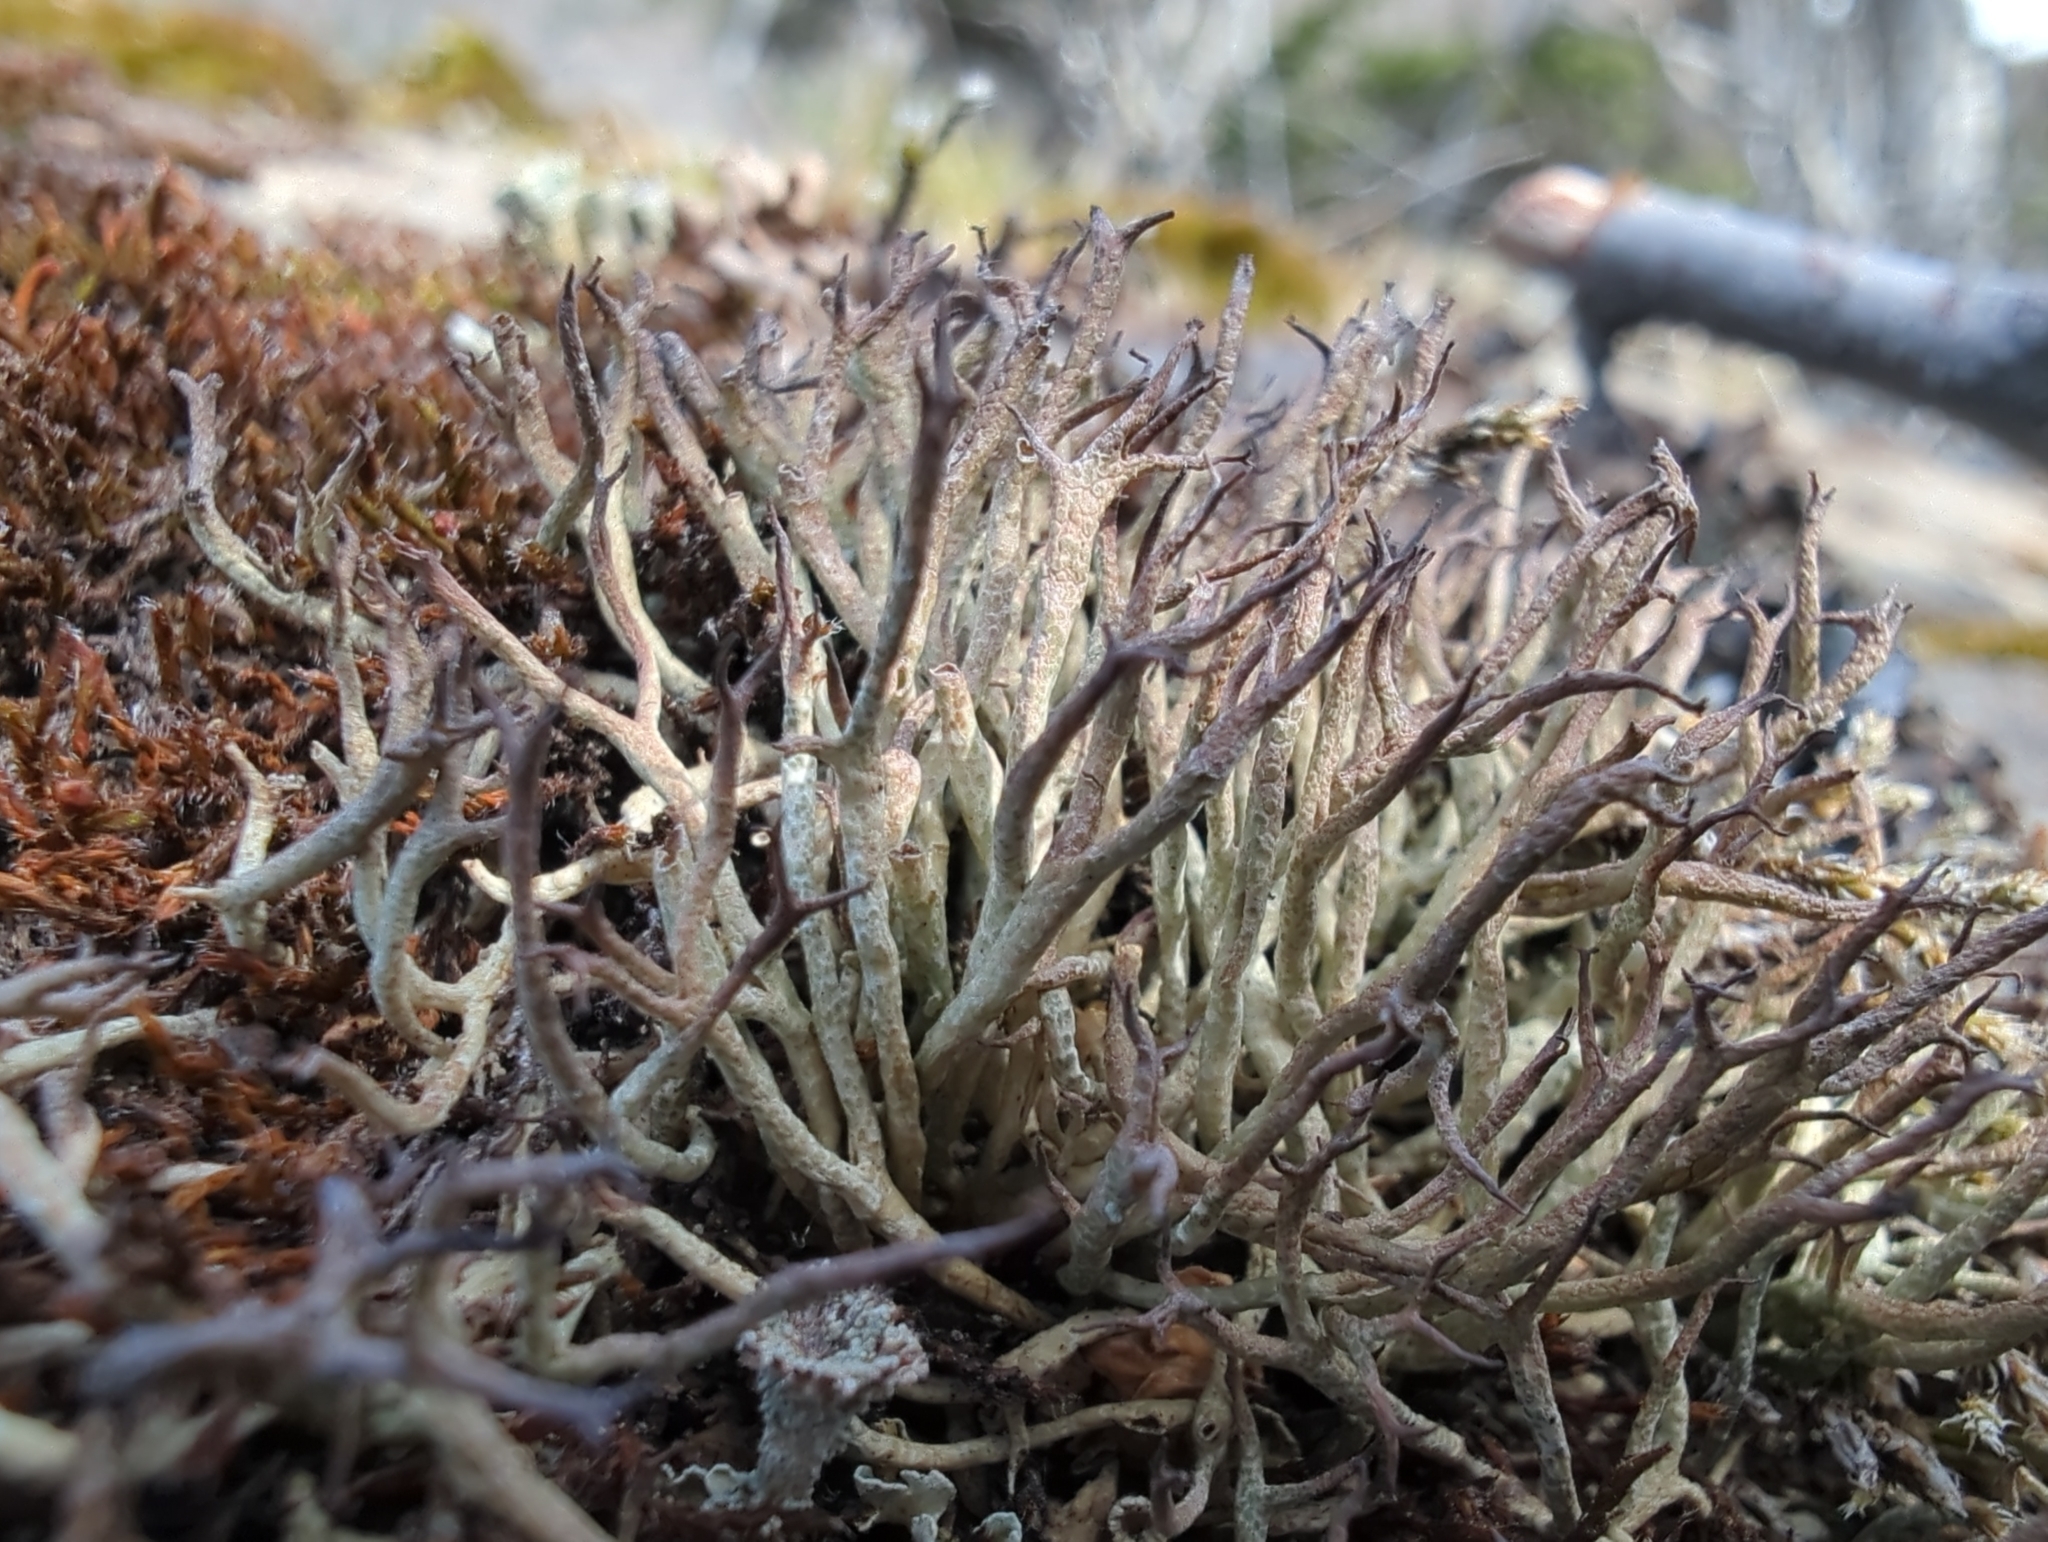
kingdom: Fungi
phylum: Ascomycota
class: Lecanoromycetes
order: Lecanorales
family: Cladoniaceae
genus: Cladonia
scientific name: Cladonia amaurocraea
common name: Quill lichen
